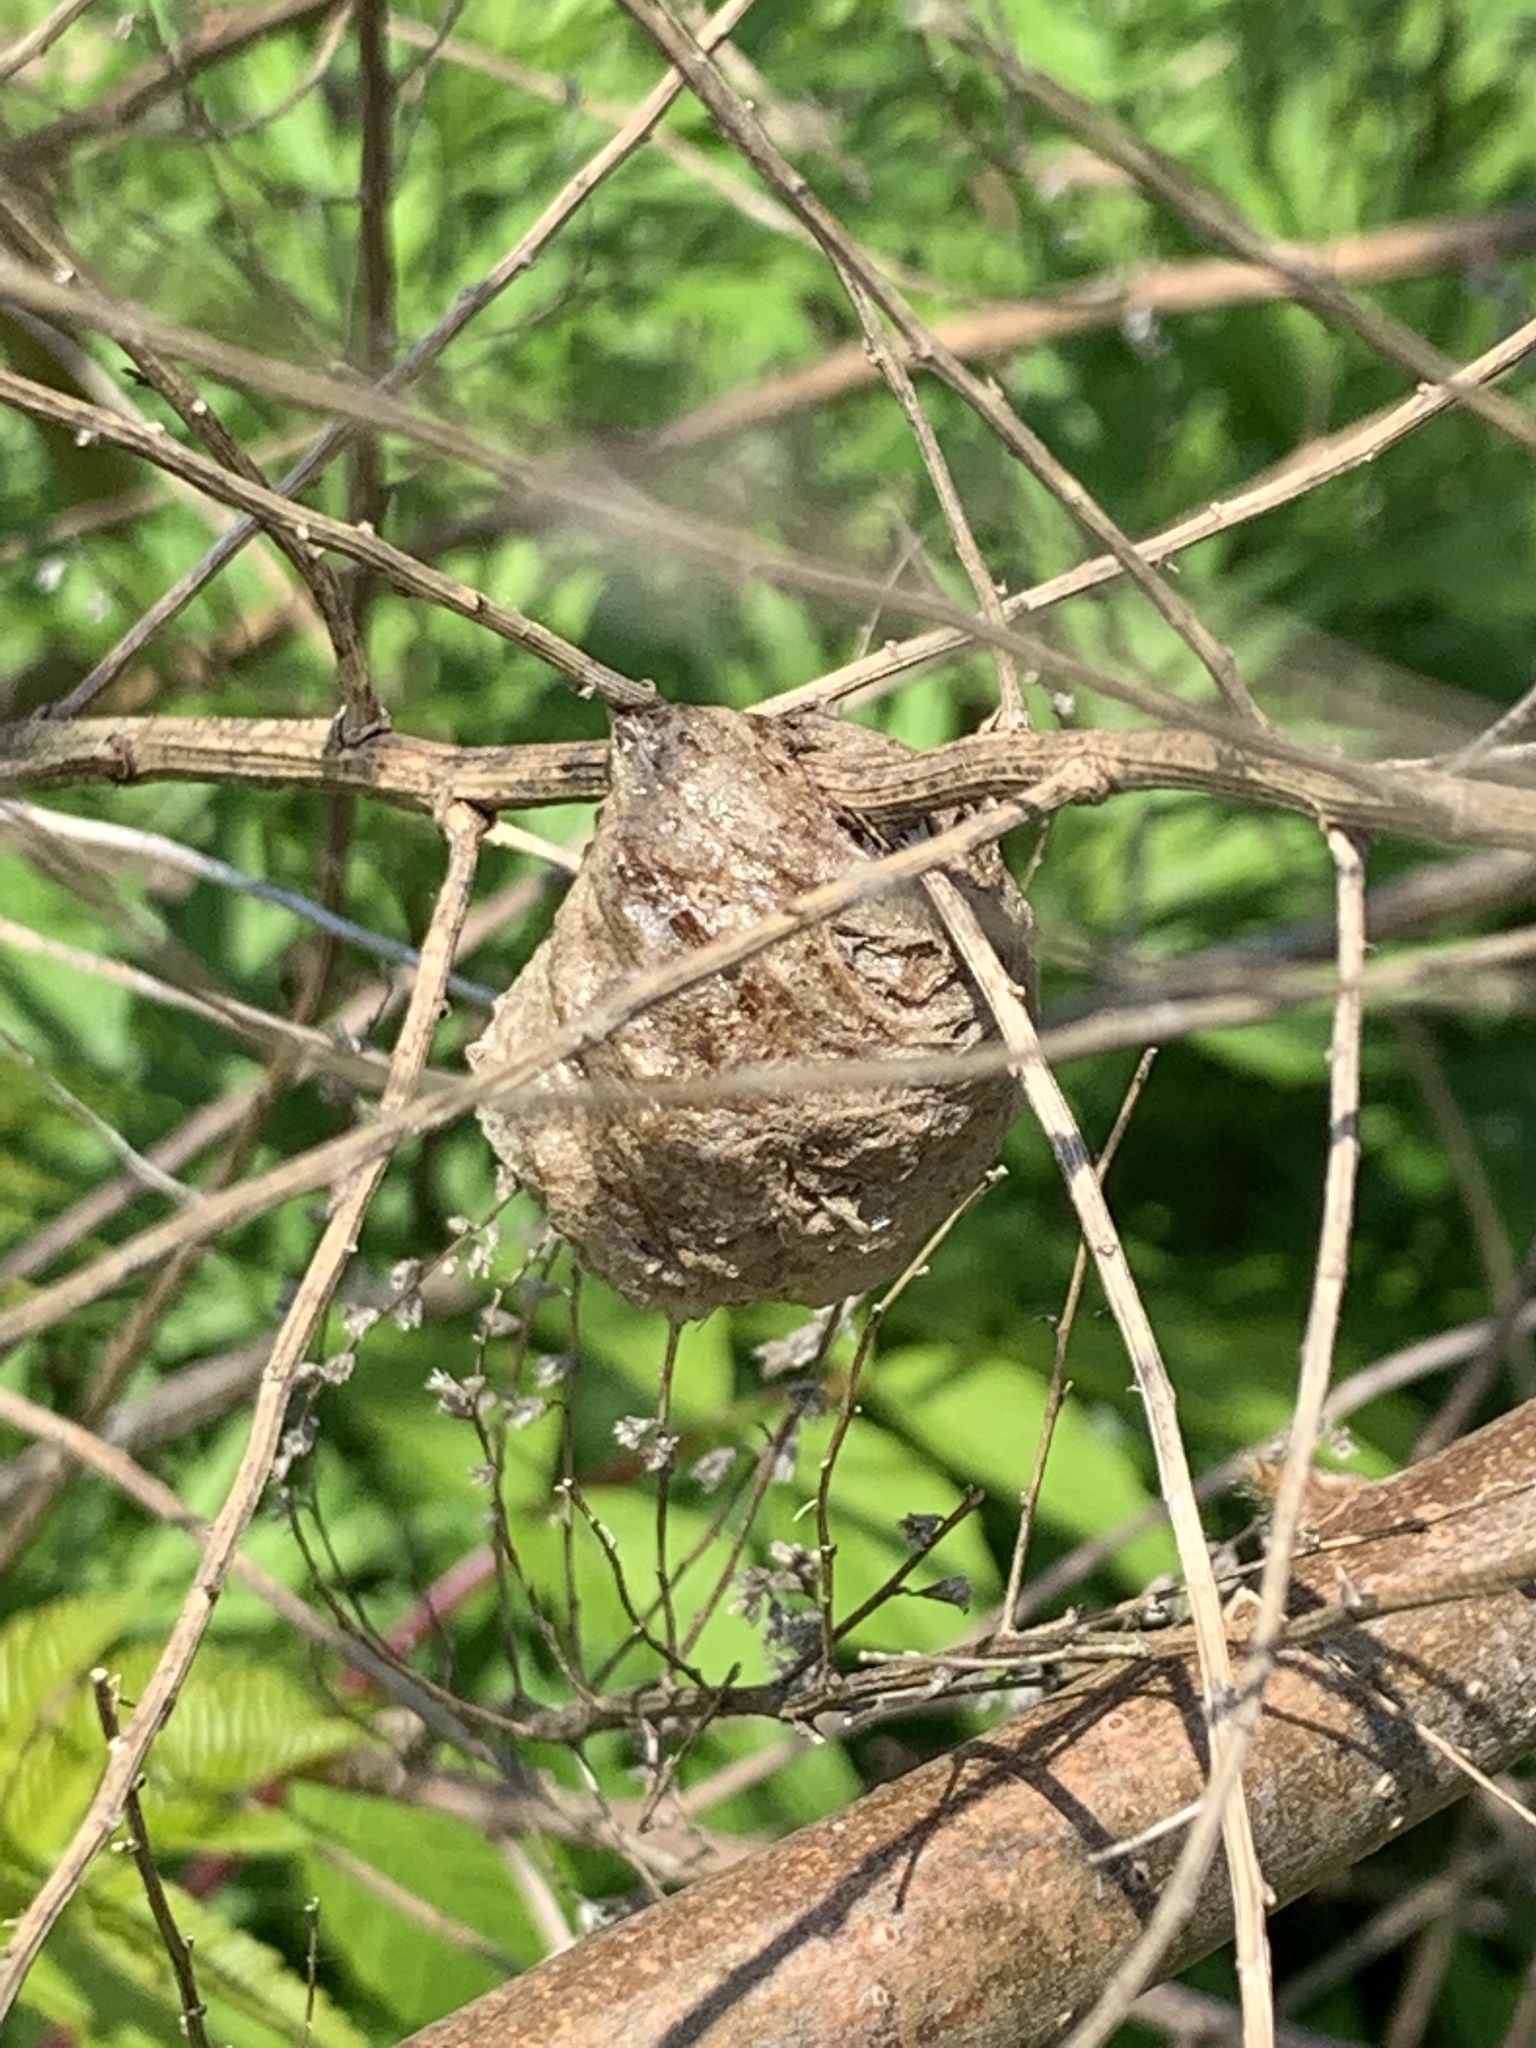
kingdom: Animalia
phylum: Arthropoda
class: Insecta
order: Mantodea
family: Mantidae
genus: Tenodera
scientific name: Tenodera sinensis
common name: Chinese mantis
